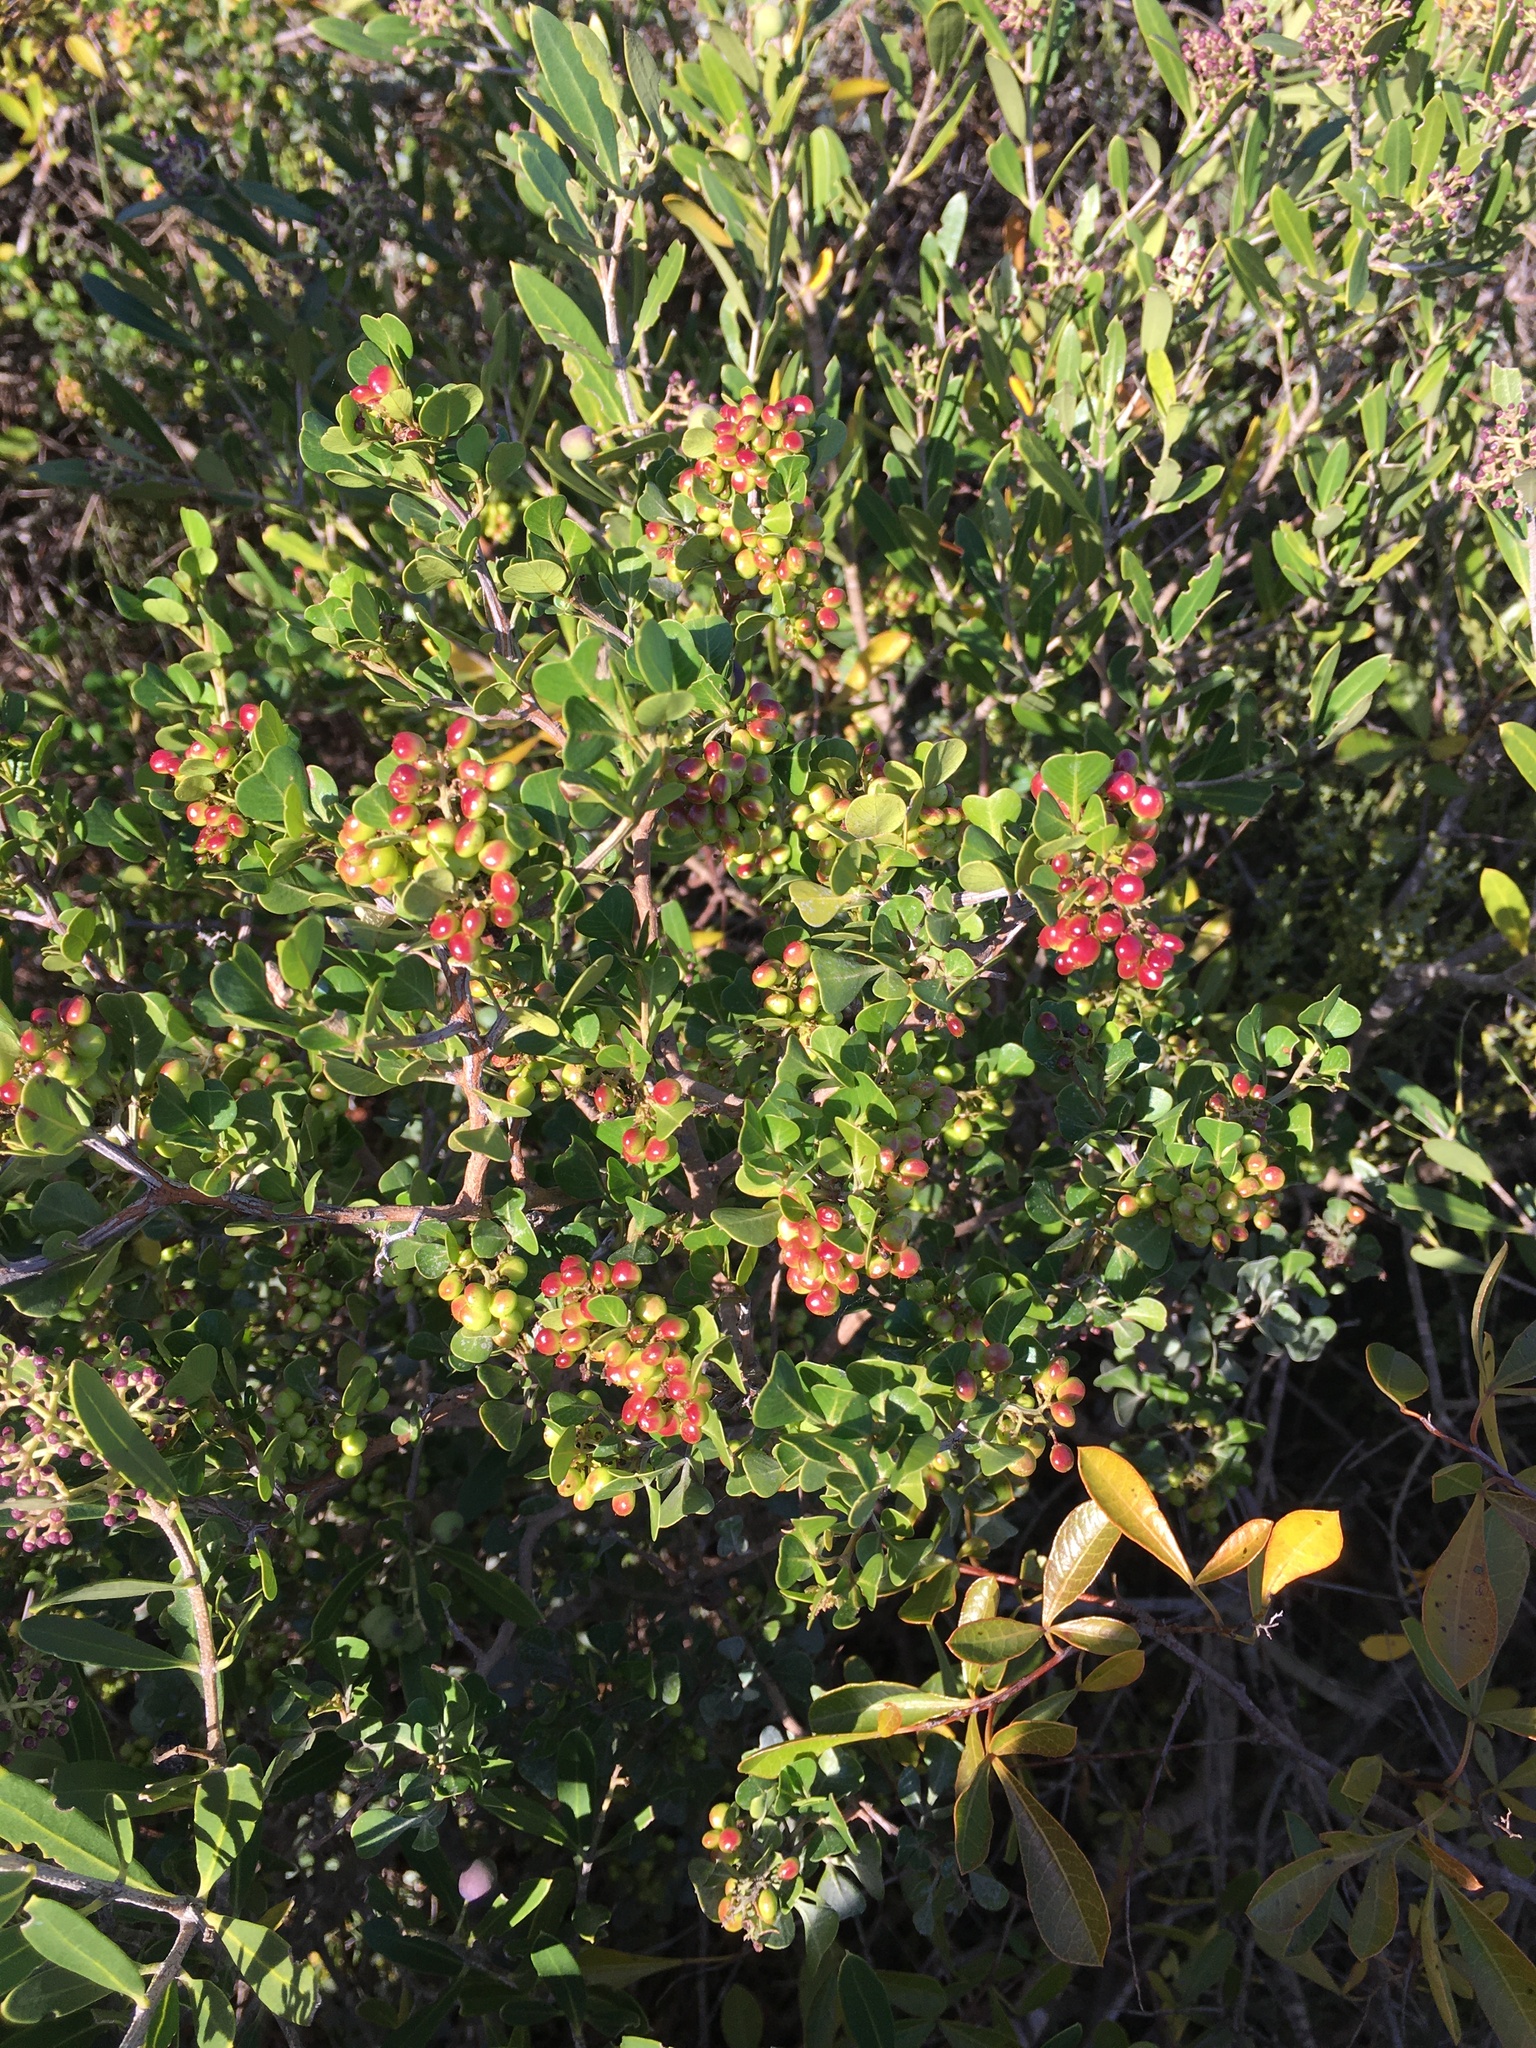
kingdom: Plantae
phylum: Tracheophyta
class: Magnoliopsida
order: Sapindales
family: Anacardiaceae
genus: Searsia
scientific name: Searsia glauca
